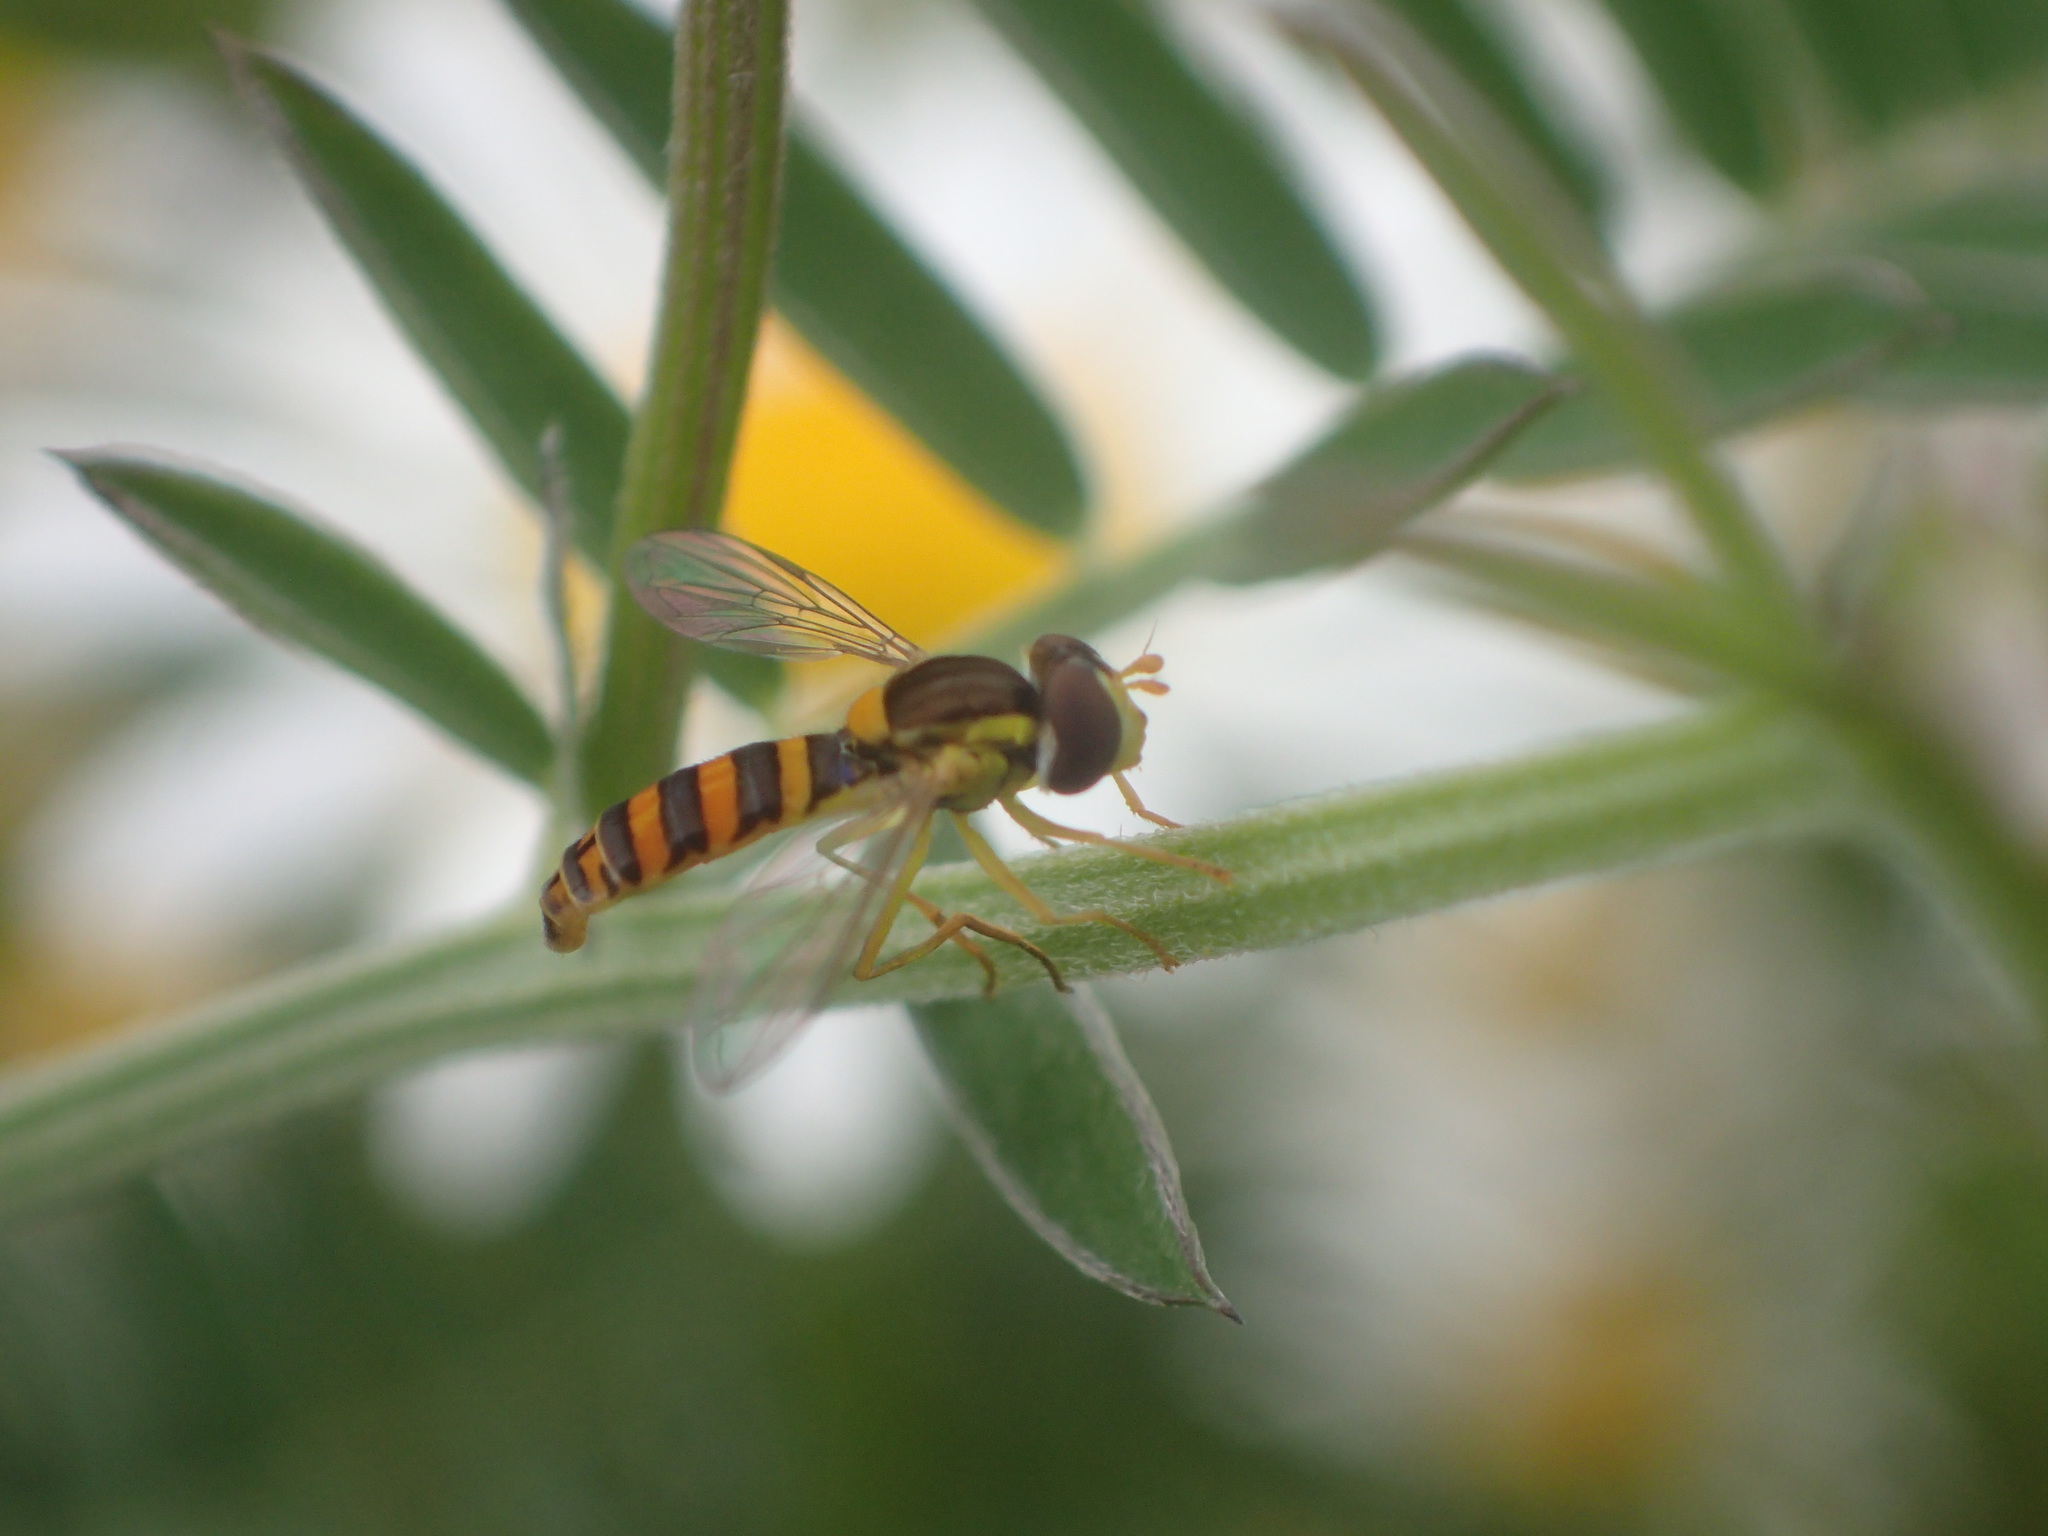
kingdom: Animalia
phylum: Arthropoda
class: Insecta
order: Diptera
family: Syrphidae
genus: Sphaerophoria
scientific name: Sphaerophoria
